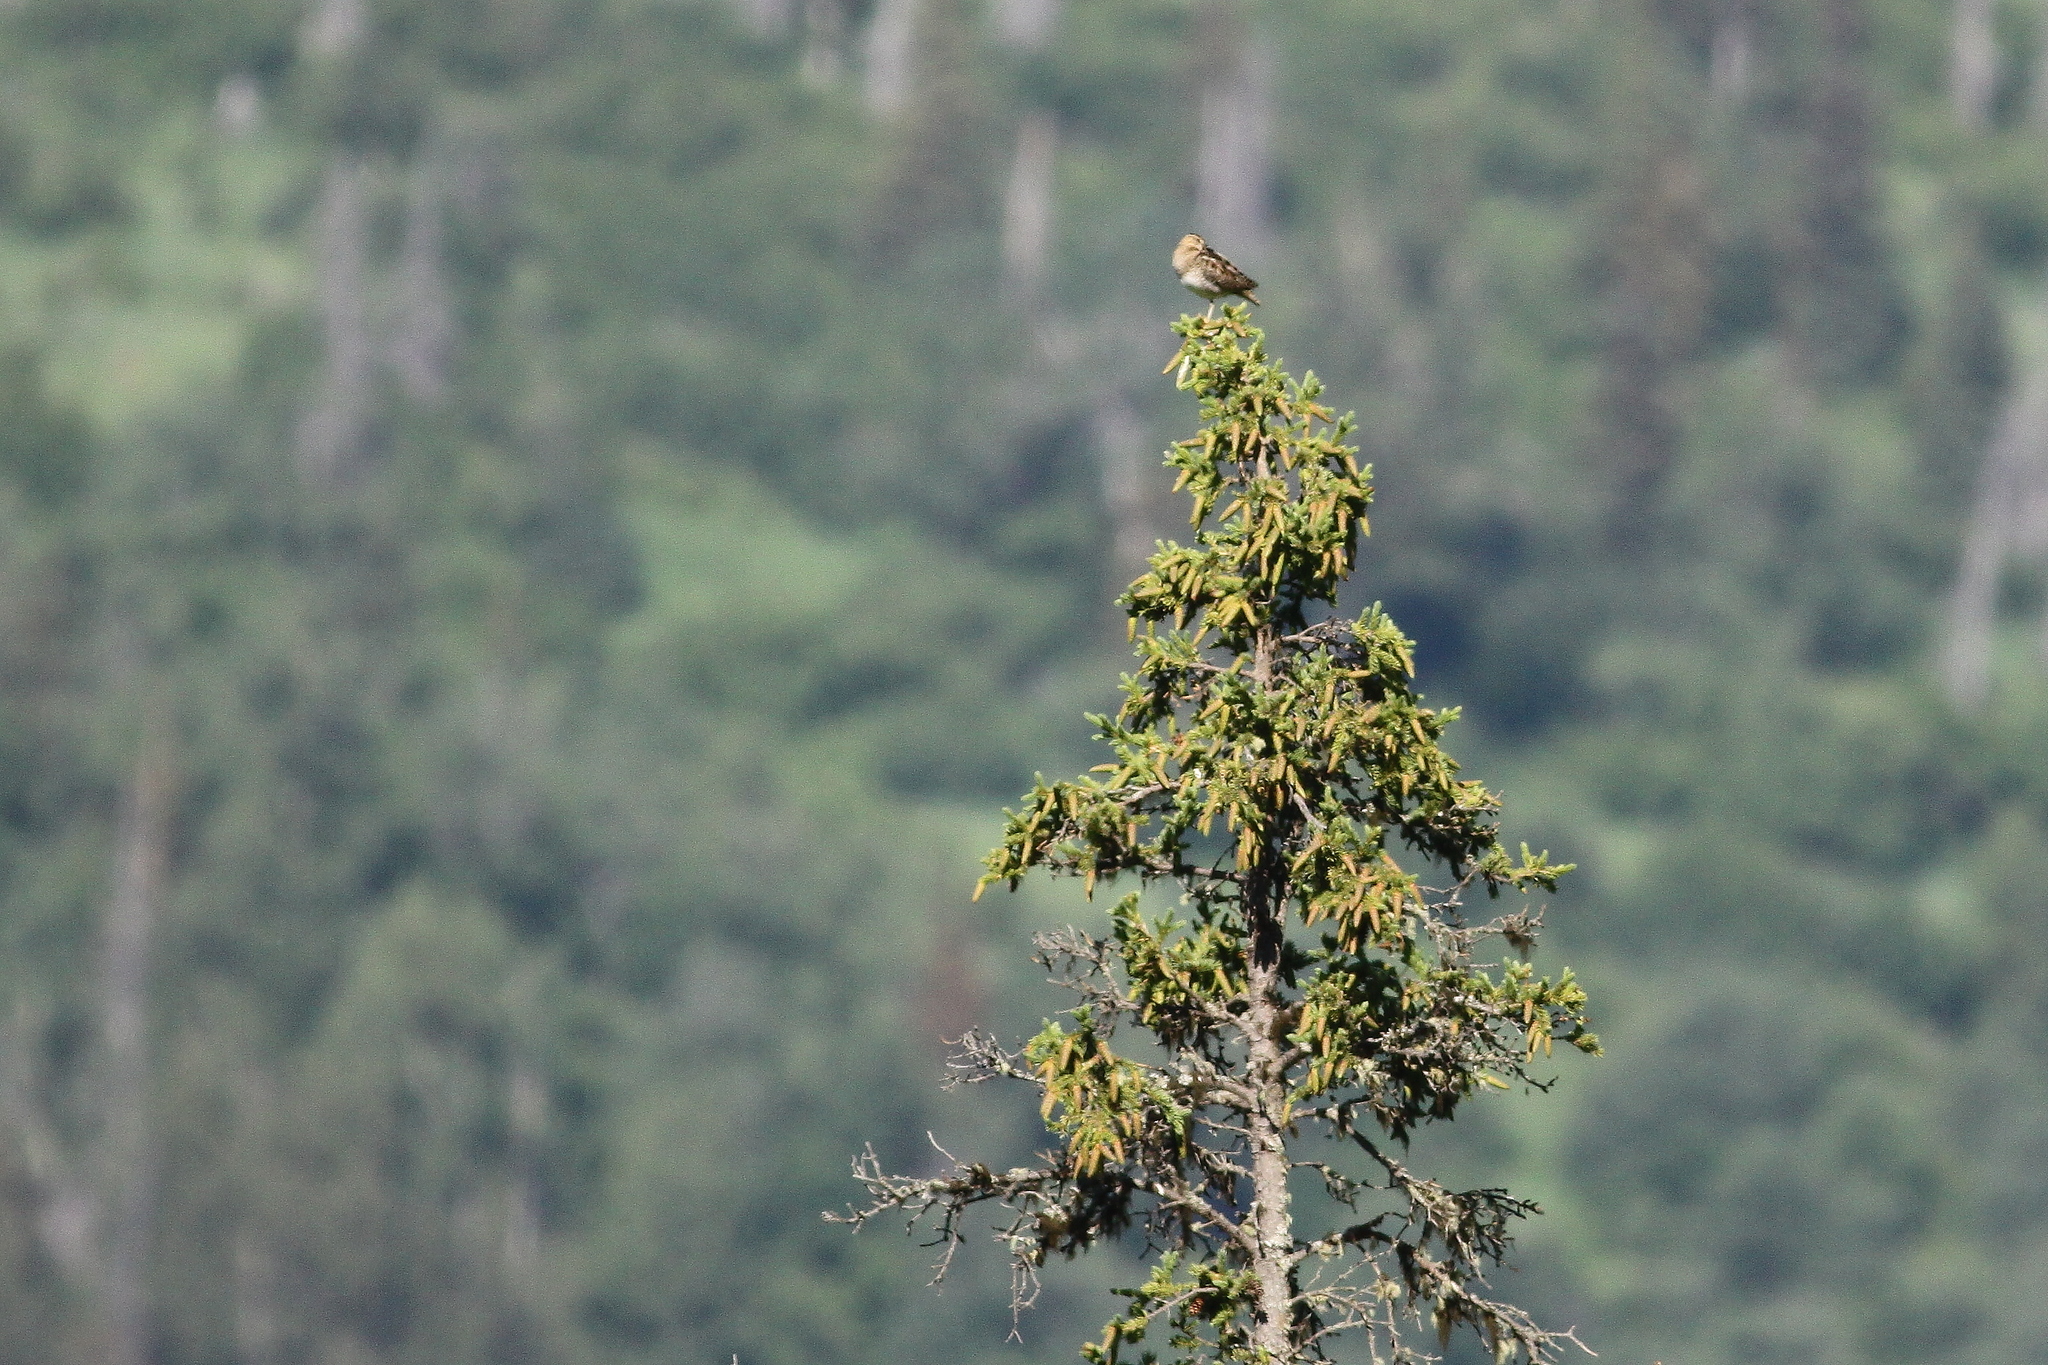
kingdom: Animalia
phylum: Chordata
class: Aves
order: Charadriiformes
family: Scolopacidae
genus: Gallinago
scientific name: Gallinago delicata
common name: Wilson's snipe
